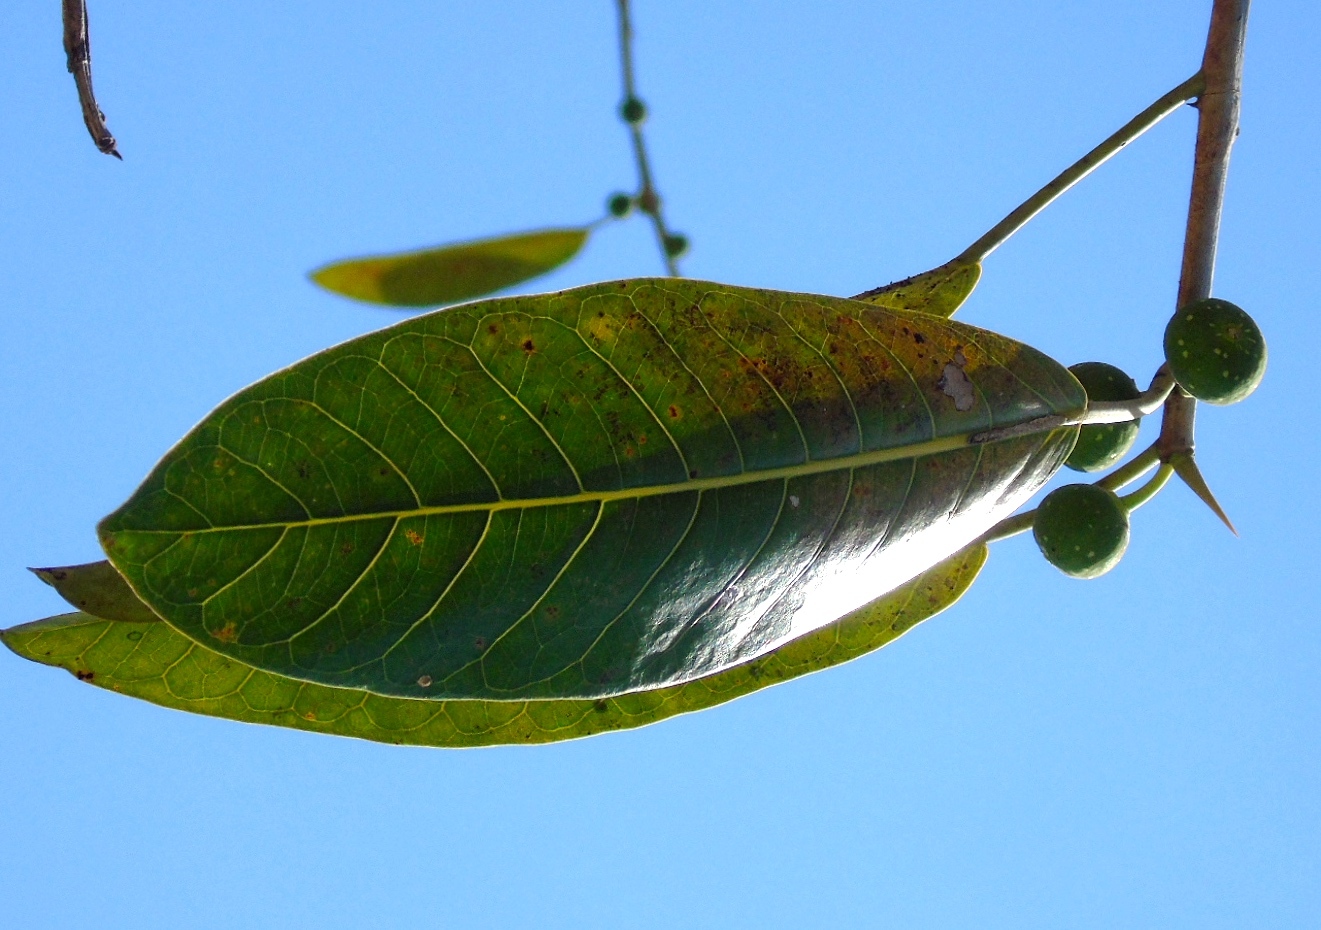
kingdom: Plantae
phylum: Tracheophyta
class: Magnoliopsida
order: Rosales
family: Moraceae
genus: Ficus
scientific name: Ficus crocata
